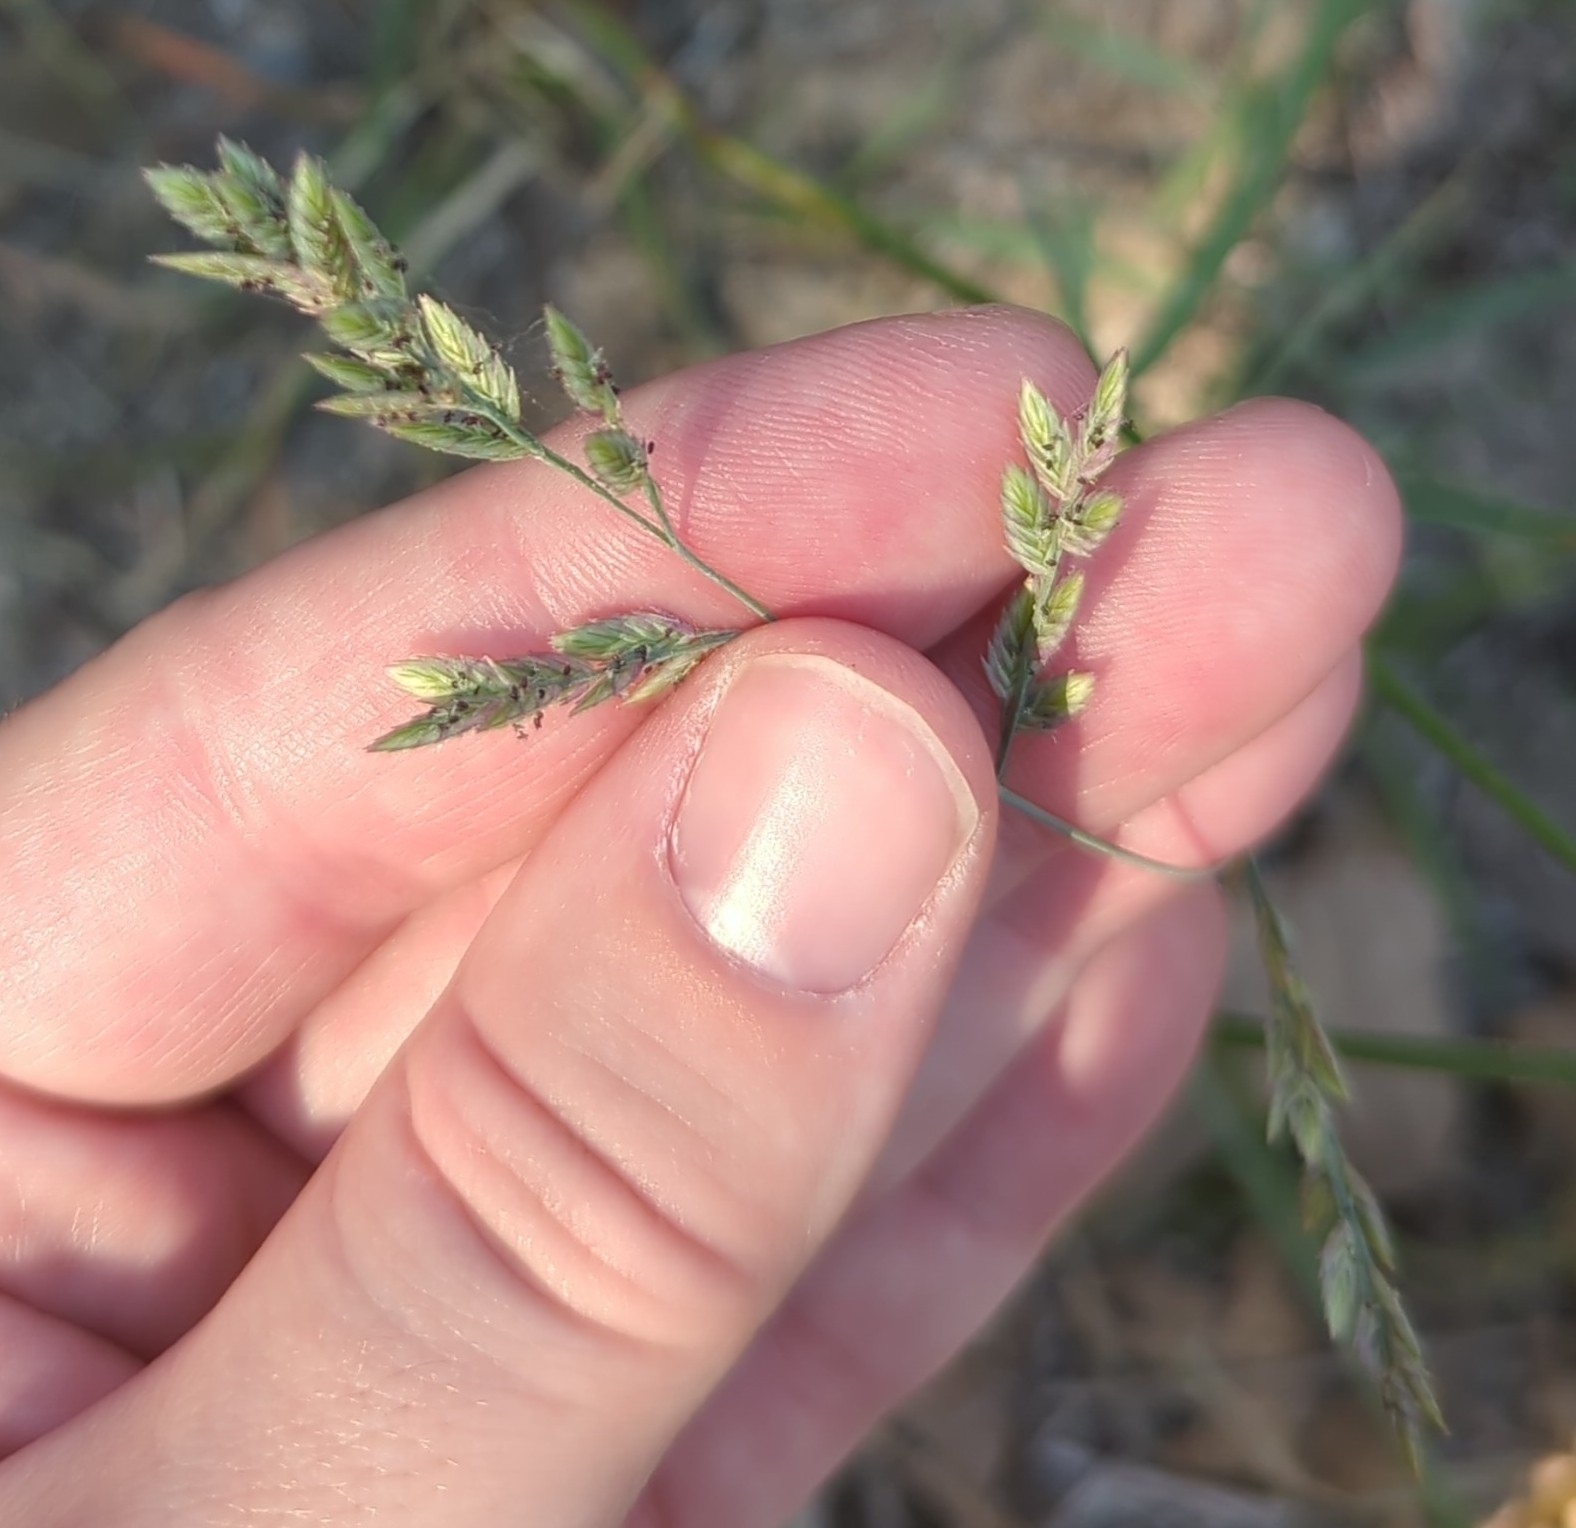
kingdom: Plantae
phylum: Tracheophyta
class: Liliopsida
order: Poales
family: Poaceae
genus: Eragrostis
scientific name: Eragrostis secundiflora
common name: Red love grass
